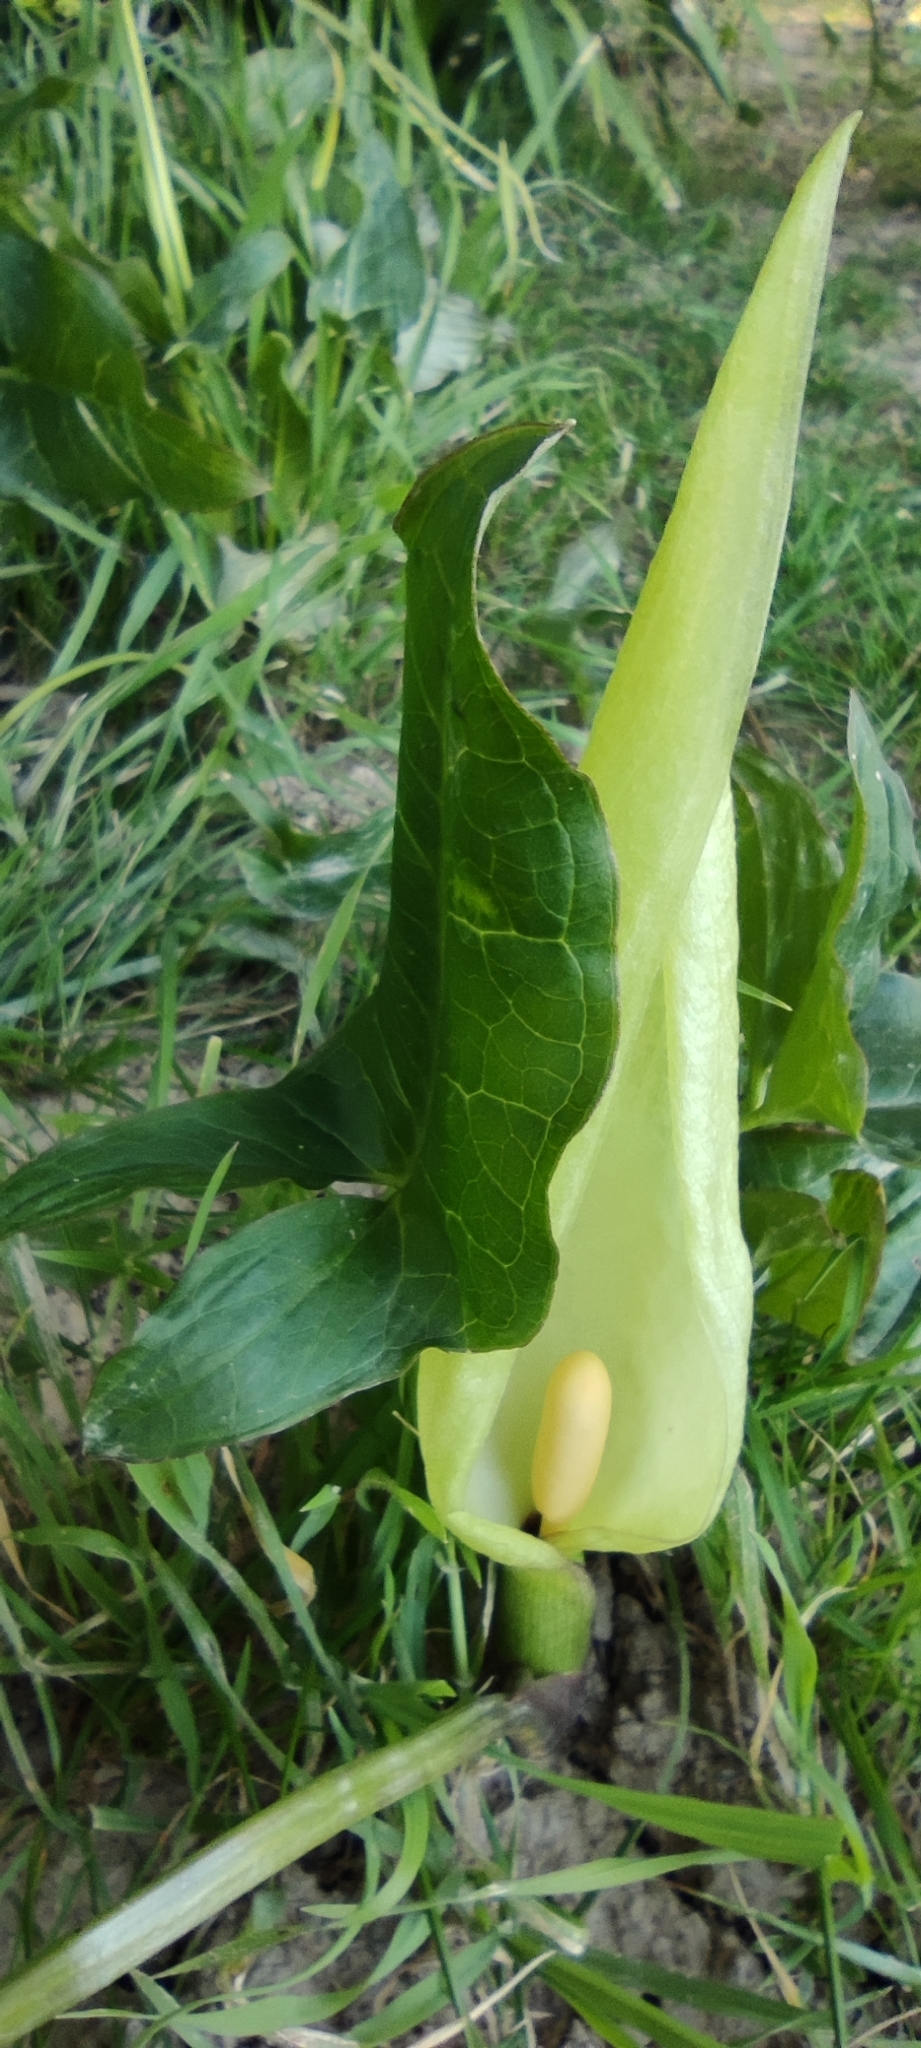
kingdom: Plantae
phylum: Tracheophyta
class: Liliopsida
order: Alismatales
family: Araceae
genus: Arum
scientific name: Arum italicum
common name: Italian lords-and-ladies
